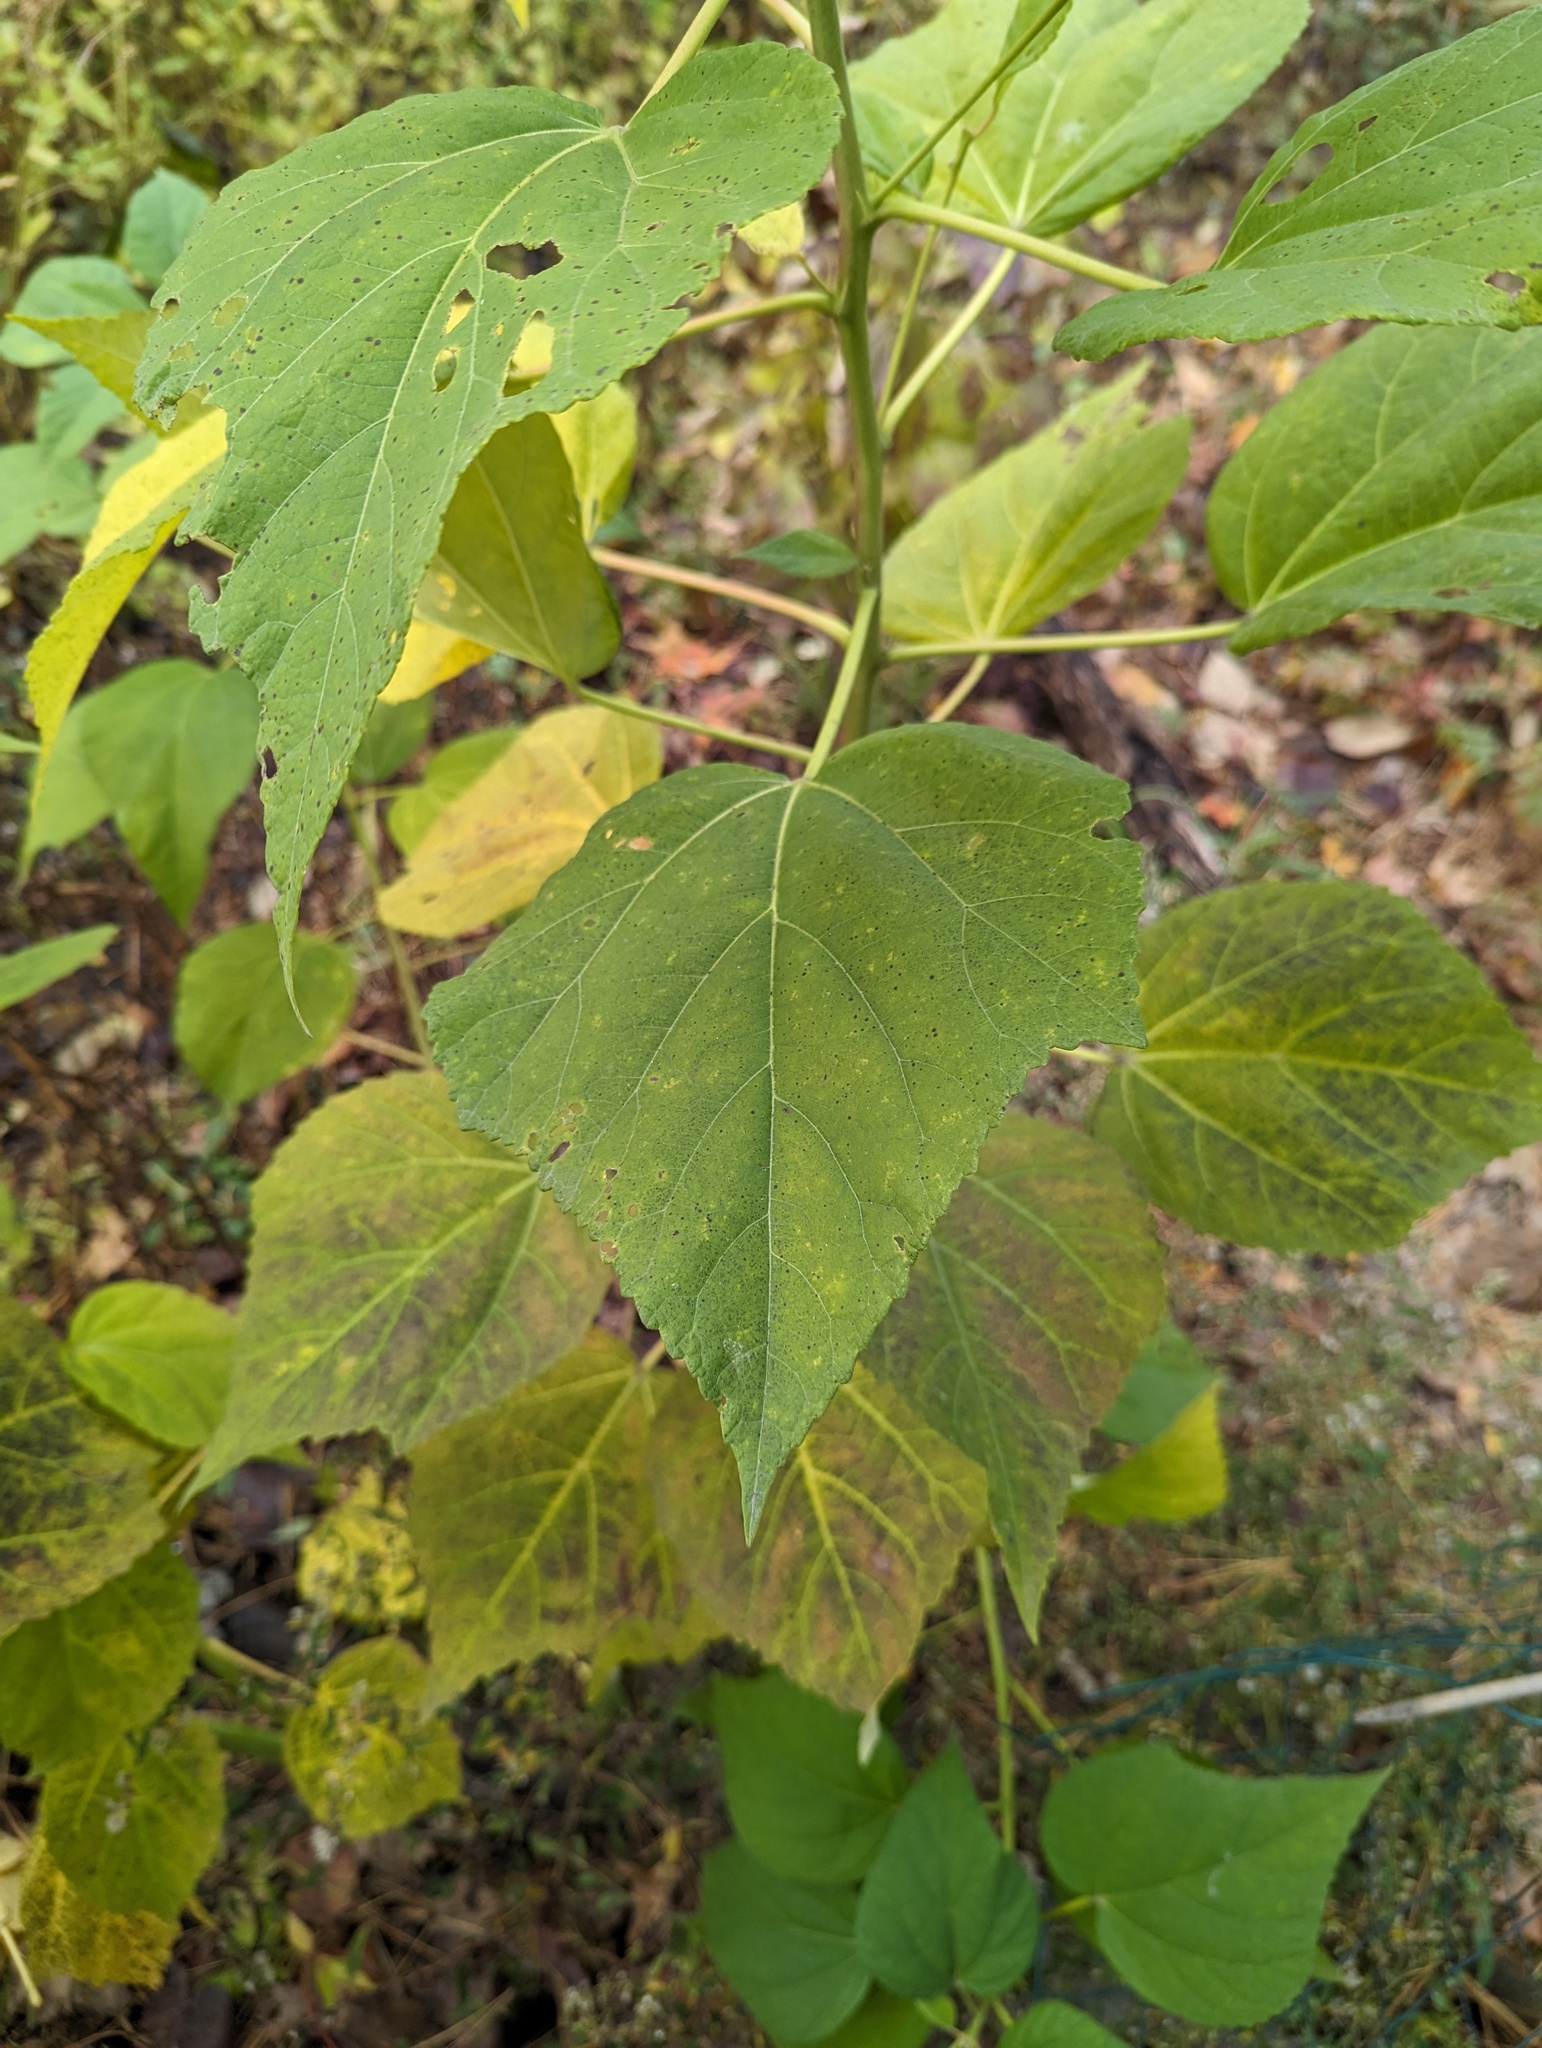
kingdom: Plantae
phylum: Tracheophyta
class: Magnoliopsida
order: Malvales
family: Malvaceae
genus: Hibiscus
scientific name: Hibiscus moscheutos
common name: Common rose-mallow
